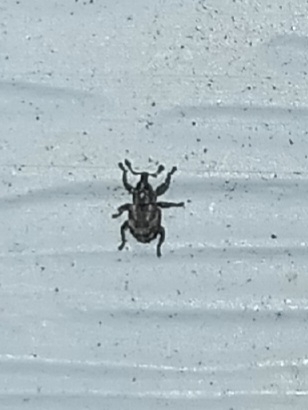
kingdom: Animalia
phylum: Arthropoda
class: Insecta
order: Coleoptera
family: Brachyceridae
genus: Tanysphyrus
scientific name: Tanysphyrus lemnae
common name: Duckweed weevil
